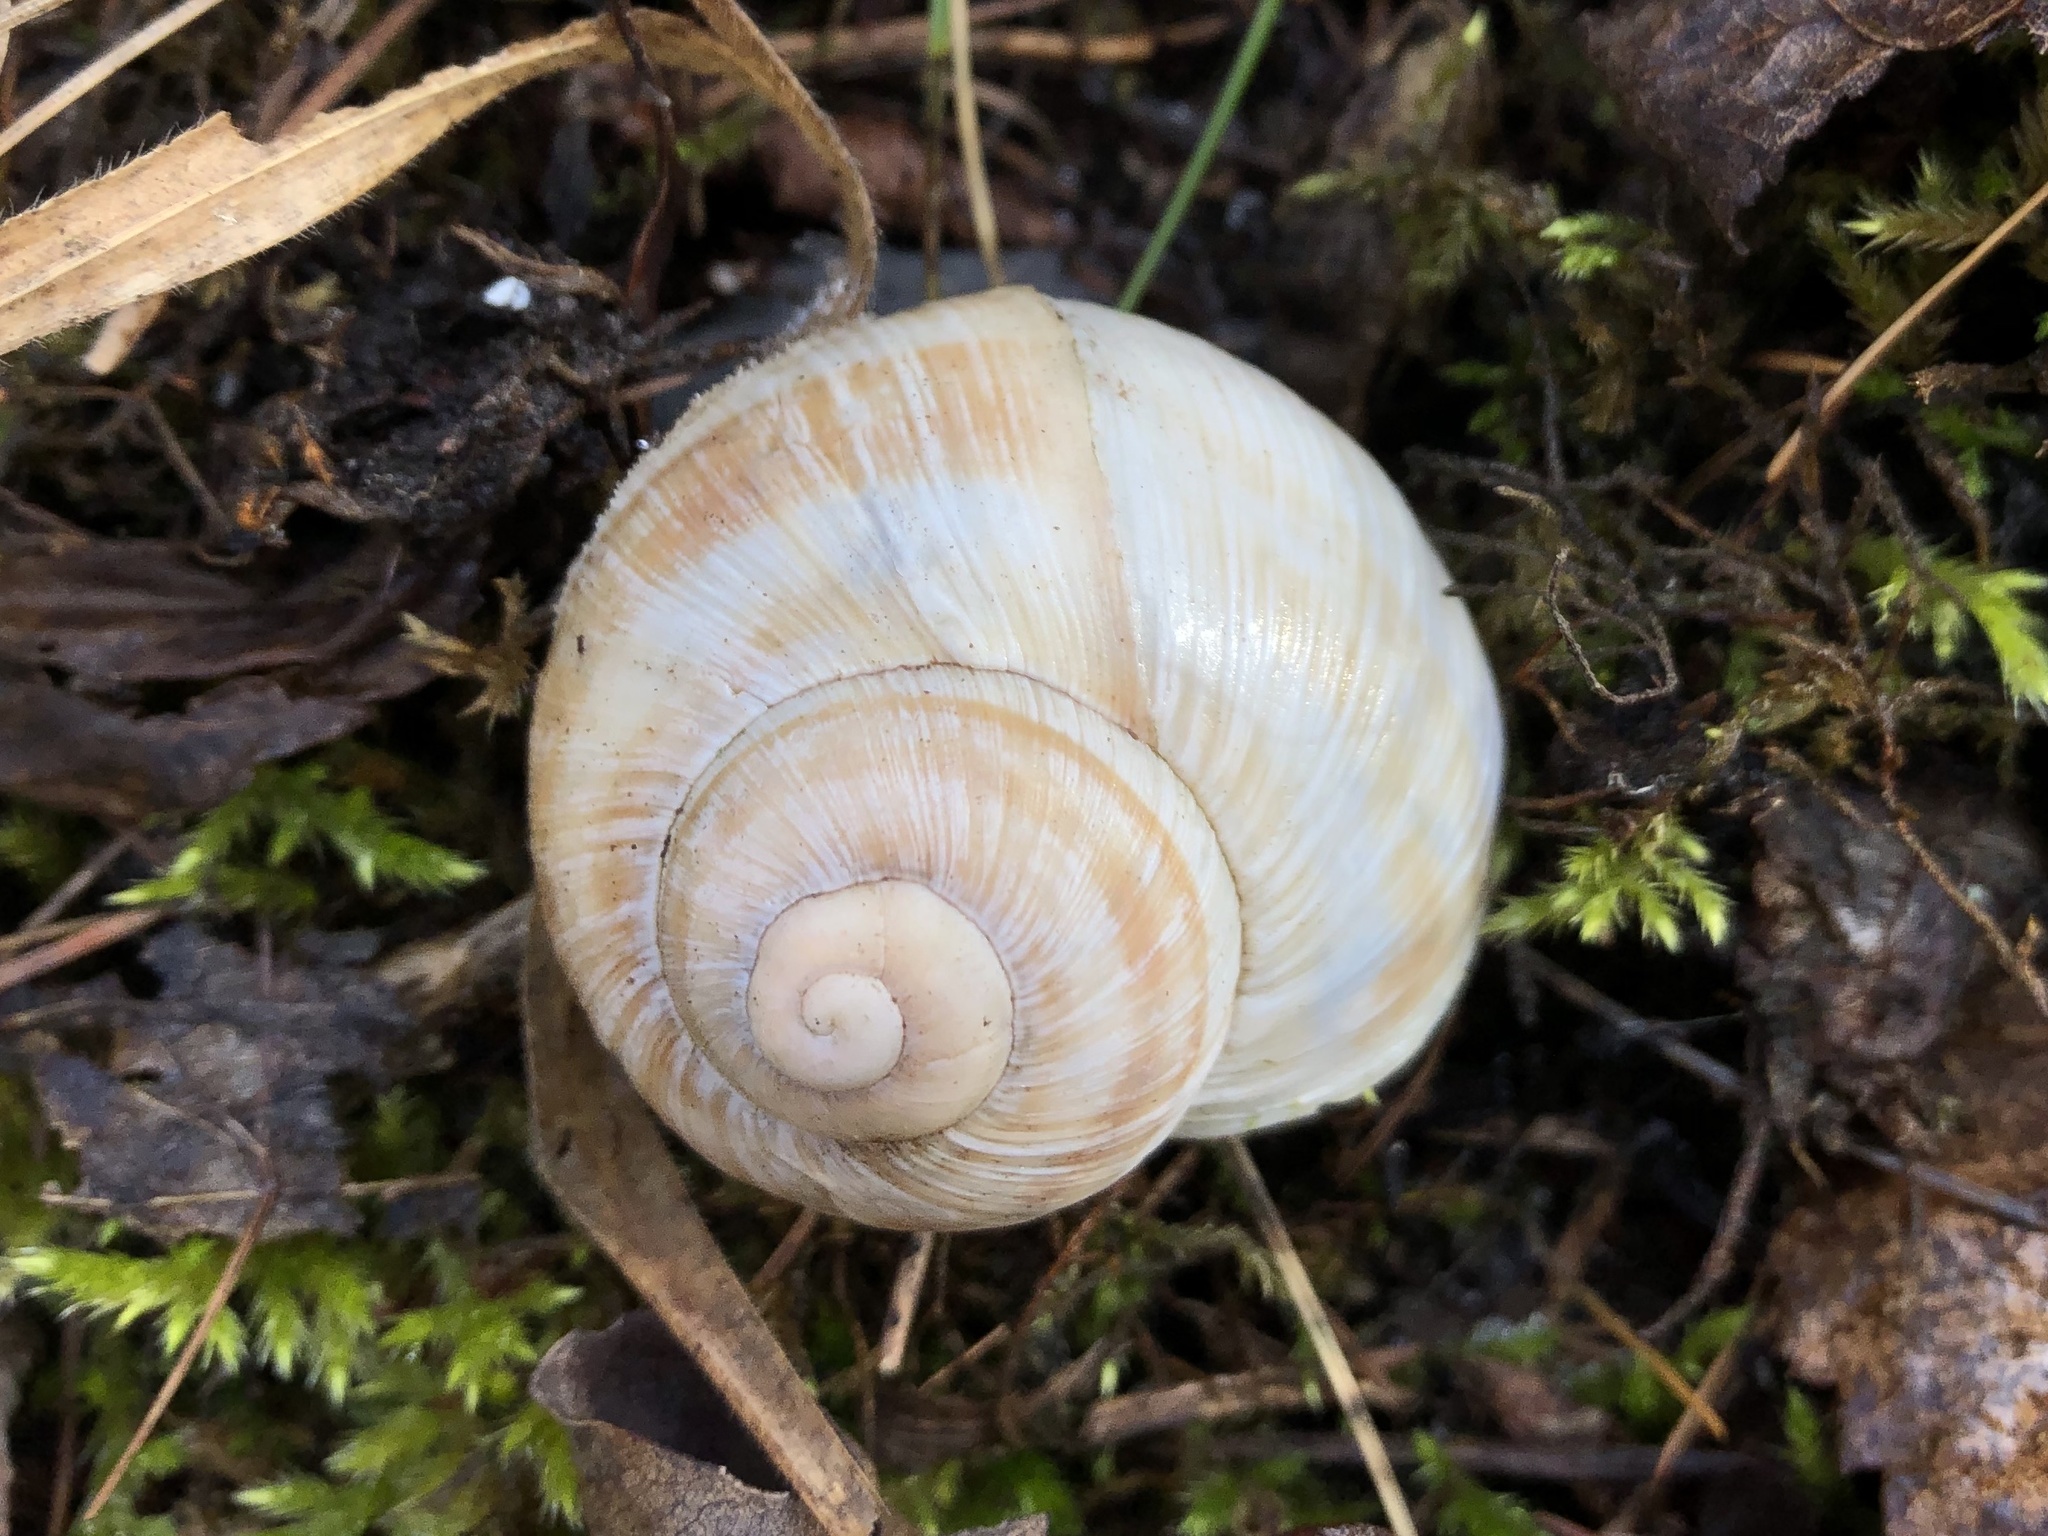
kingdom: Animalia
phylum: Mollusca
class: Gastropoda
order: Stylommatophora
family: Helicidae
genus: Helix
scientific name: Helix pomatia
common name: Roman snail
